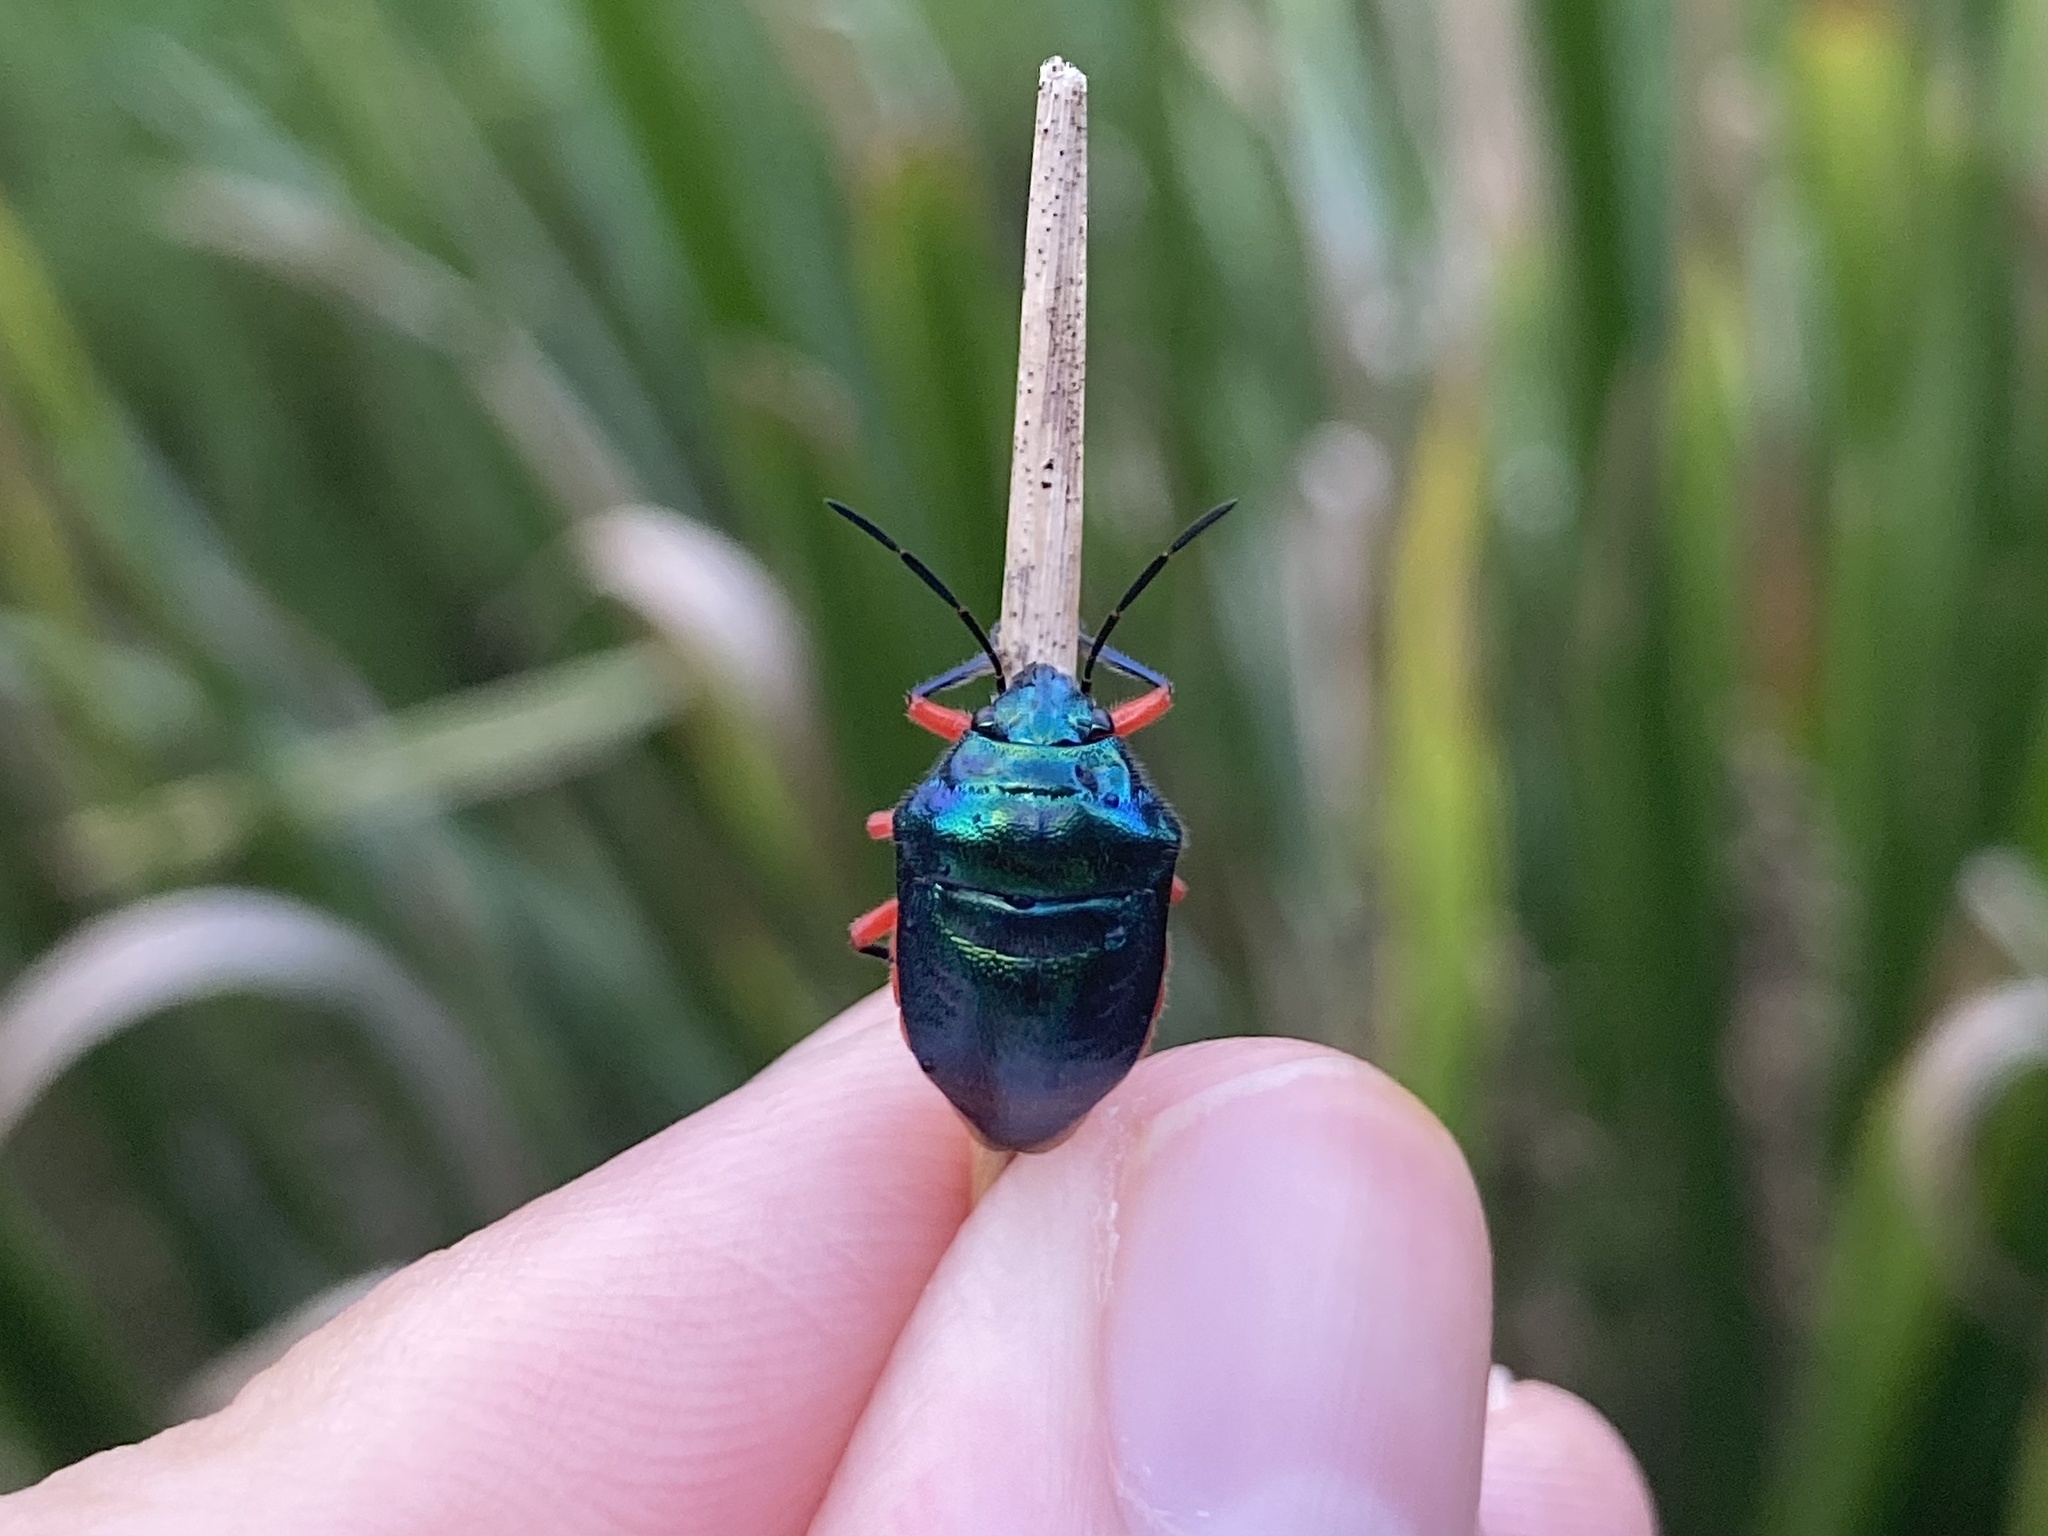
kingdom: Animalia
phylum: Arthropoda
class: Insecta
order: Hemiptera
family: Scutelleridae
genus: Lampromicra
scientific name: Lampromicra
